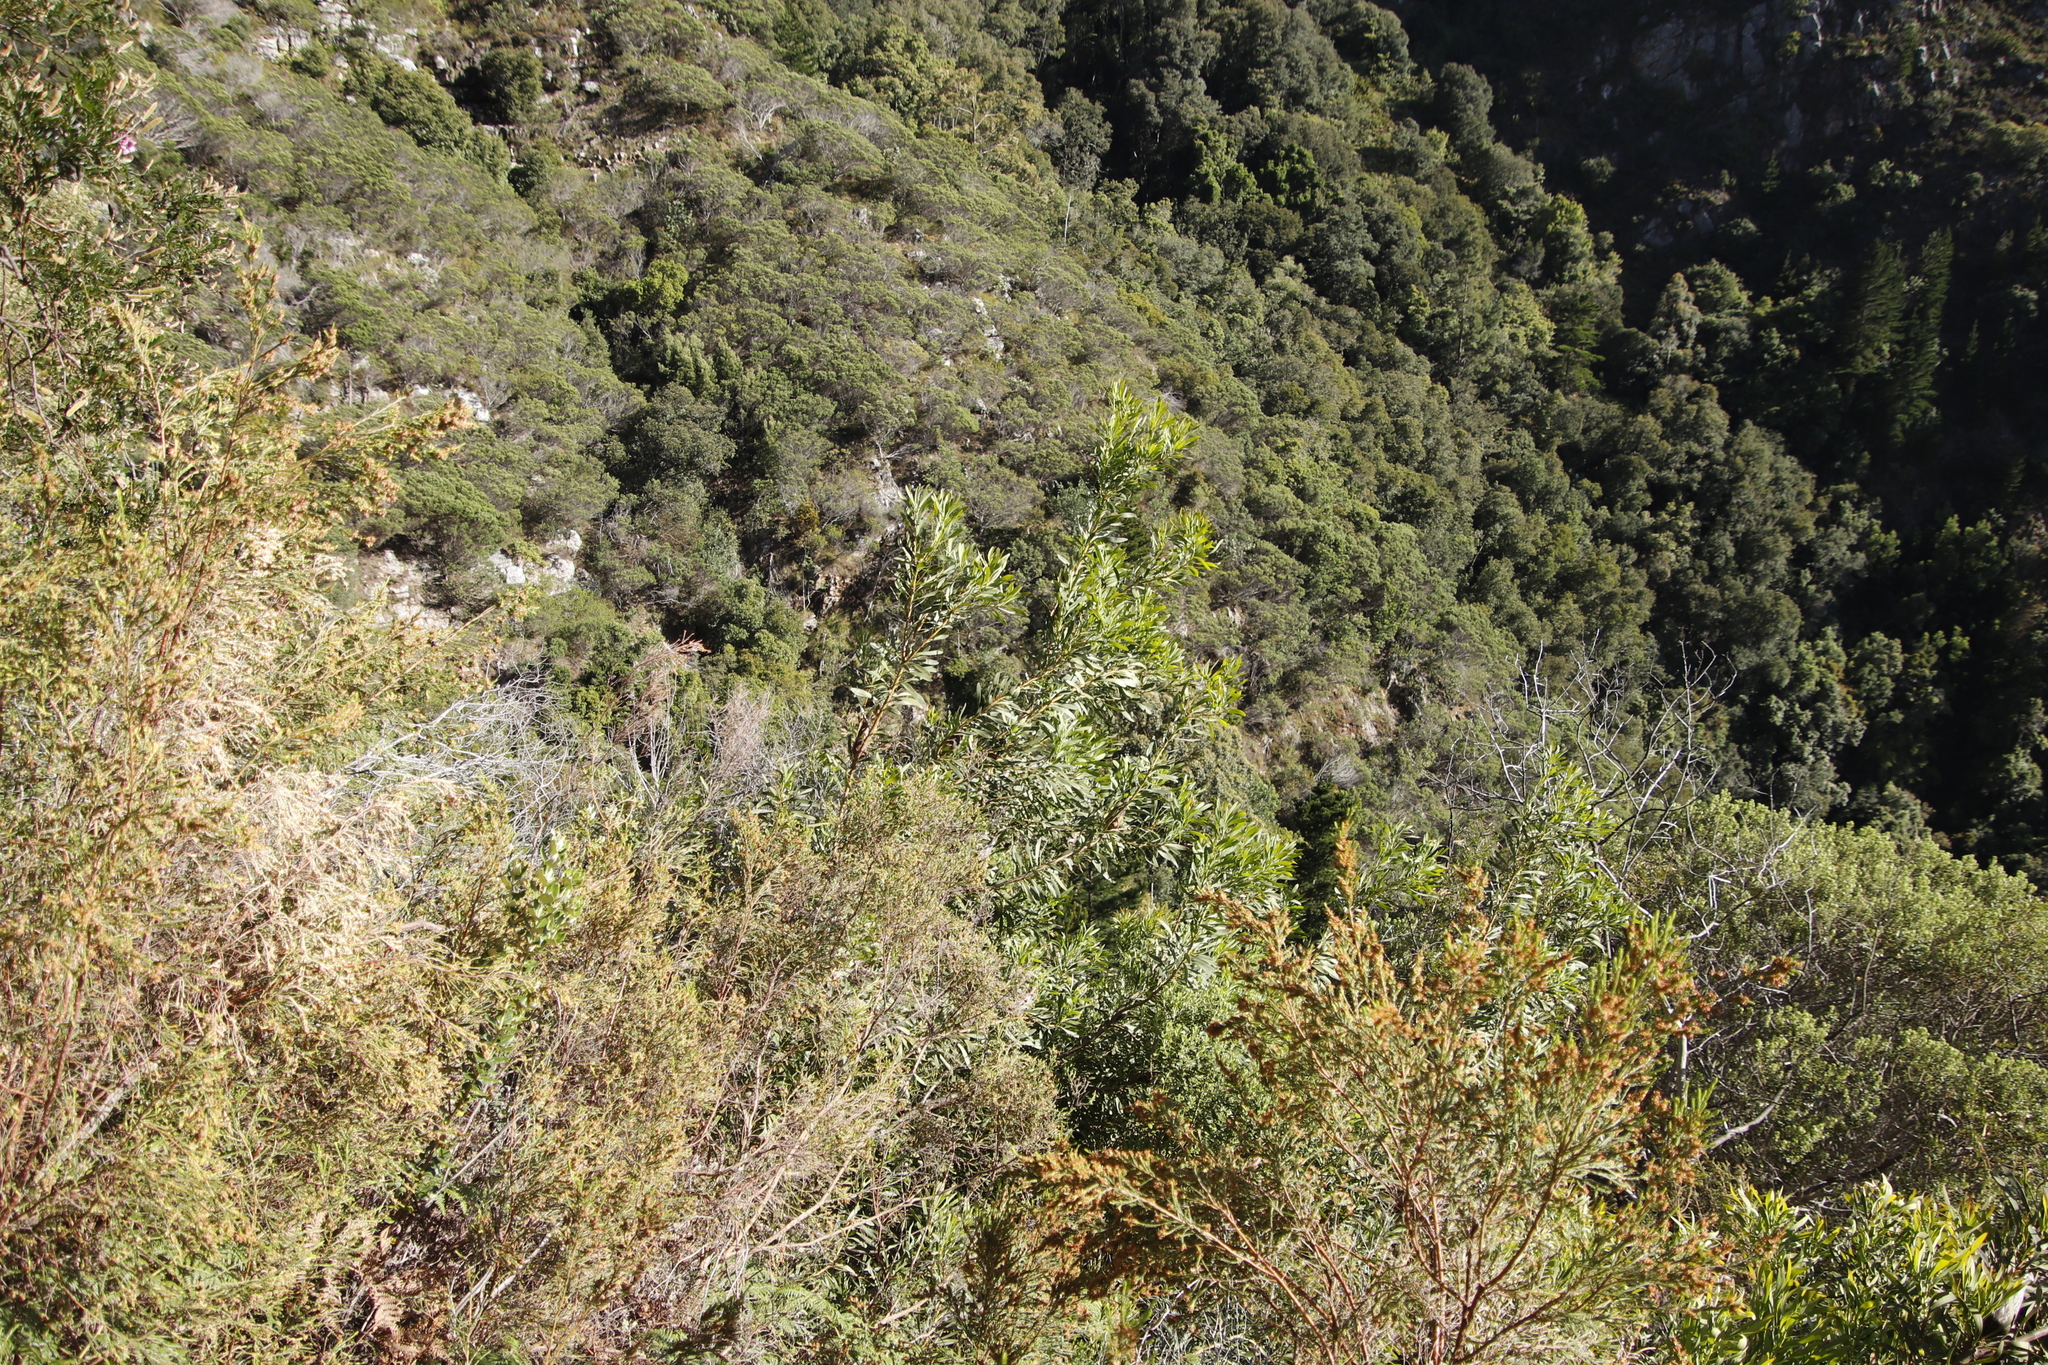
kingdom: Plantae
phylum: Tracheophyta
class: Magnoliopsida
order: Proteales
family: Proteaceae
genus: Protea
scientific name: Protea repens
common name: Sugarbush
